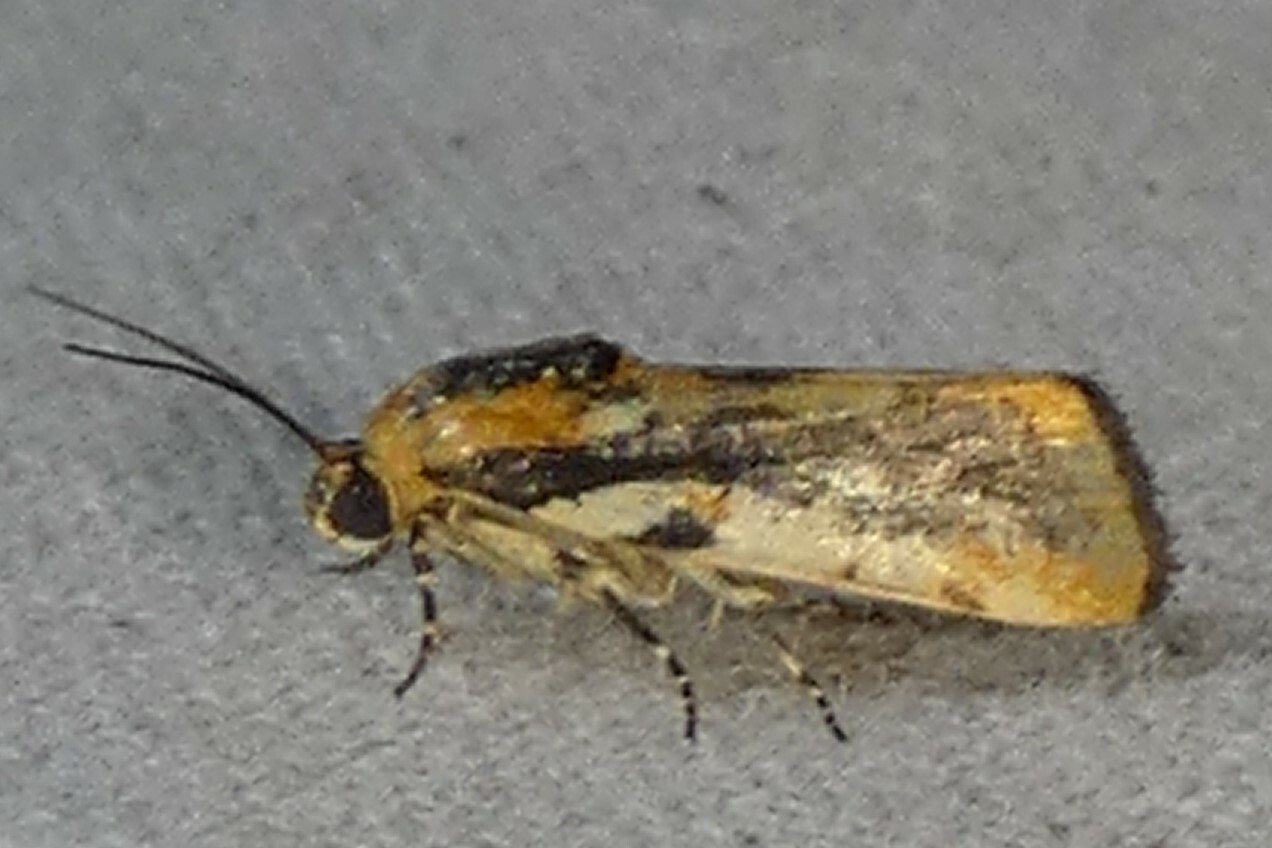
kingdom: Animalia
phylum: Arthropoda
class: Insecta
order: Lepidoptera
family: Noctuidae
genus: Acontia
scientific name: Acontia leo
